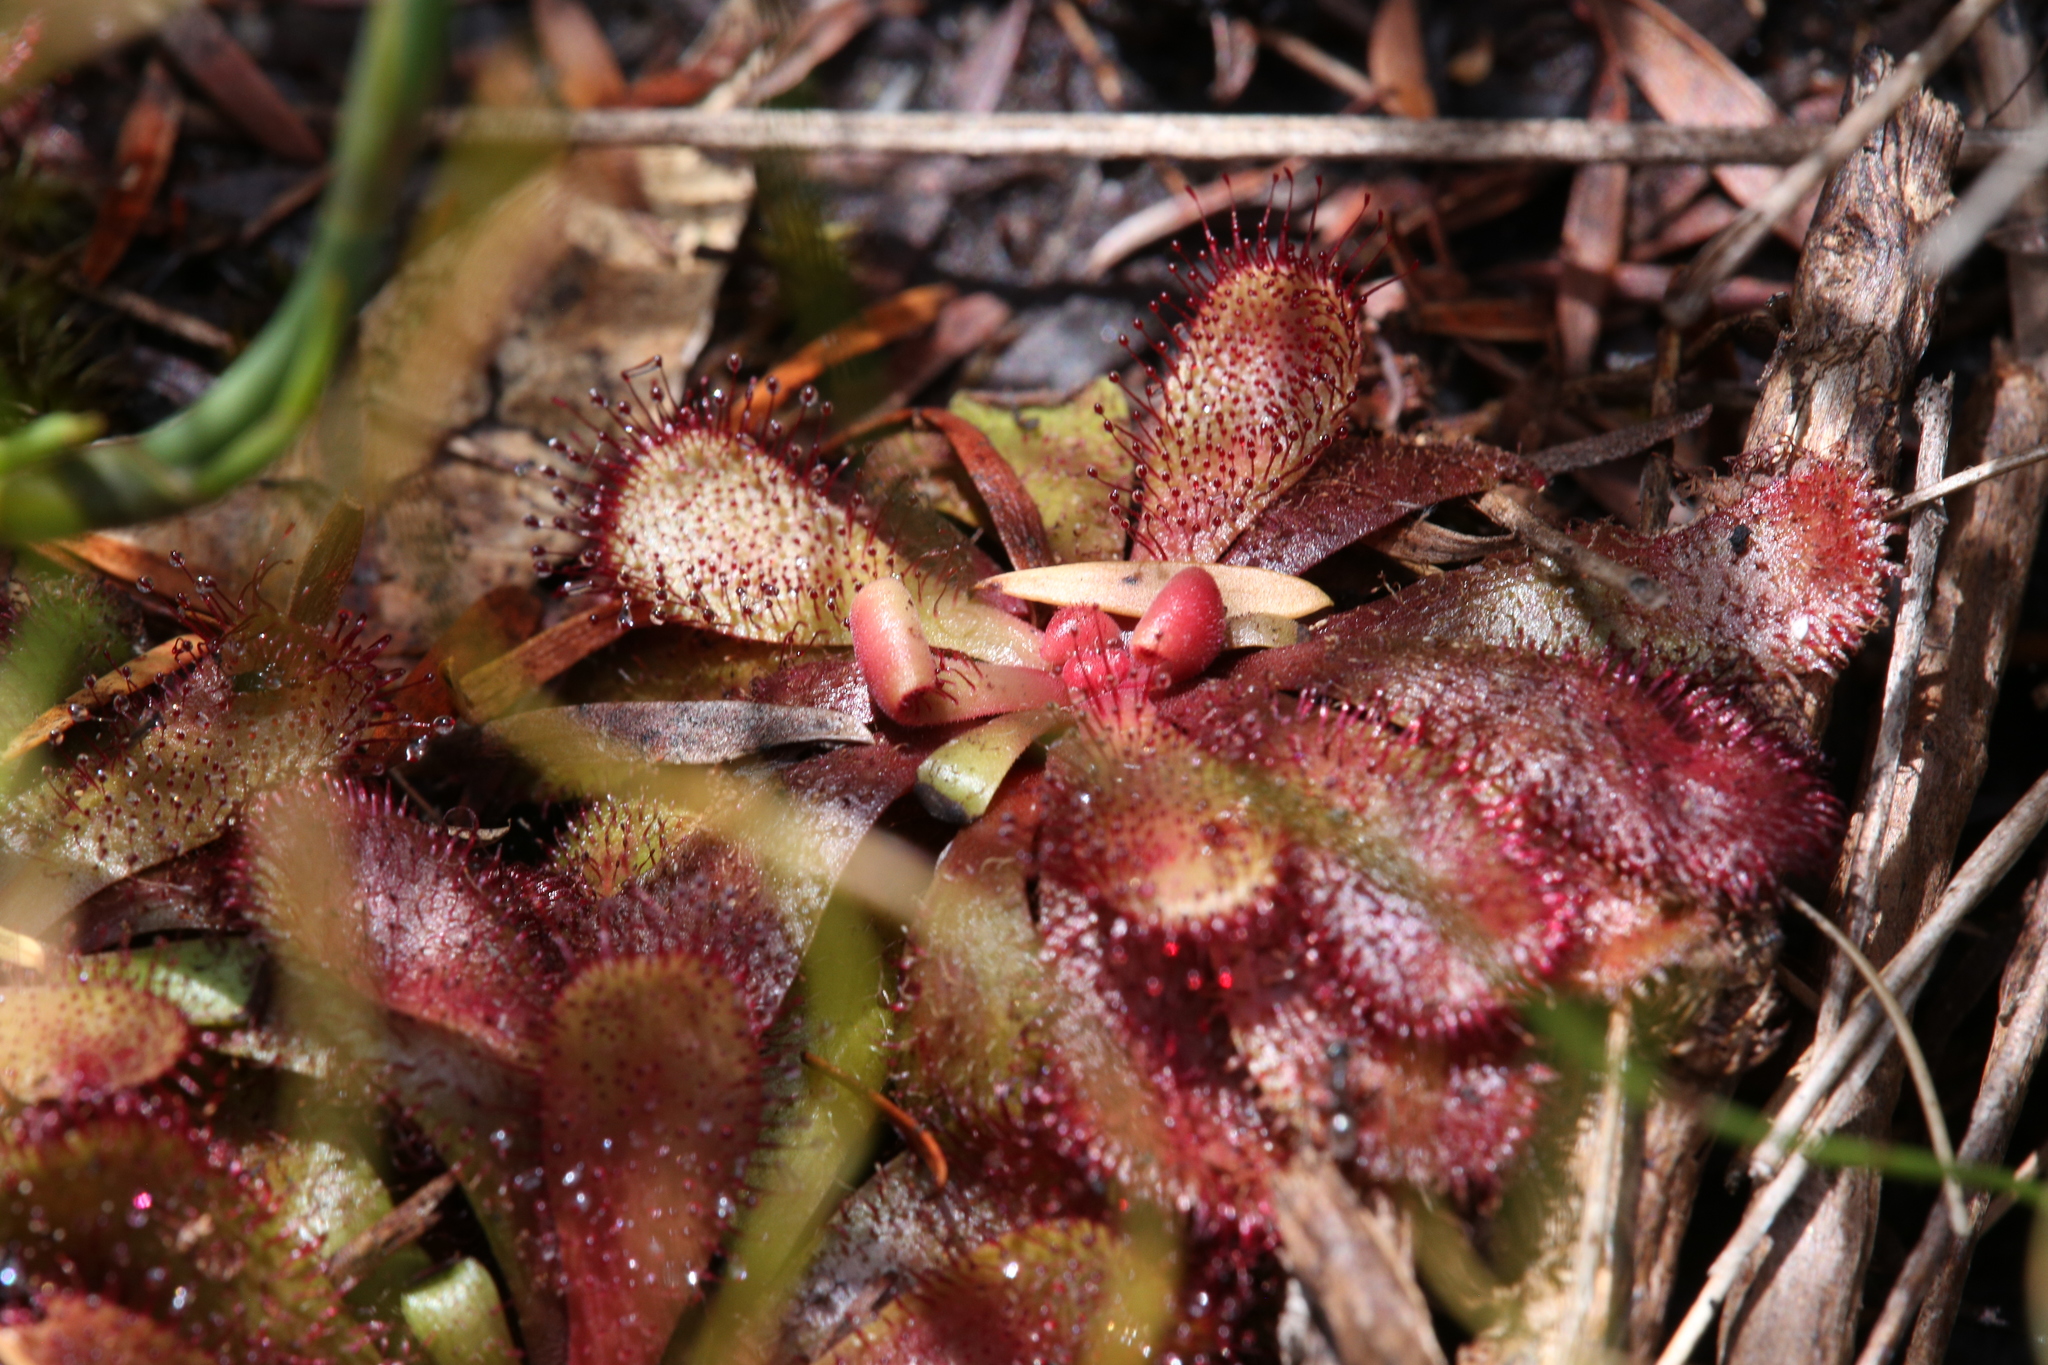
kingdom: Plantae
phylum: Tracheophyta
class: Magnoliopsida
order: Caryophyllales
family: Droseraceae
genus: Drosera
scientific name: Drosera hamiltonii
